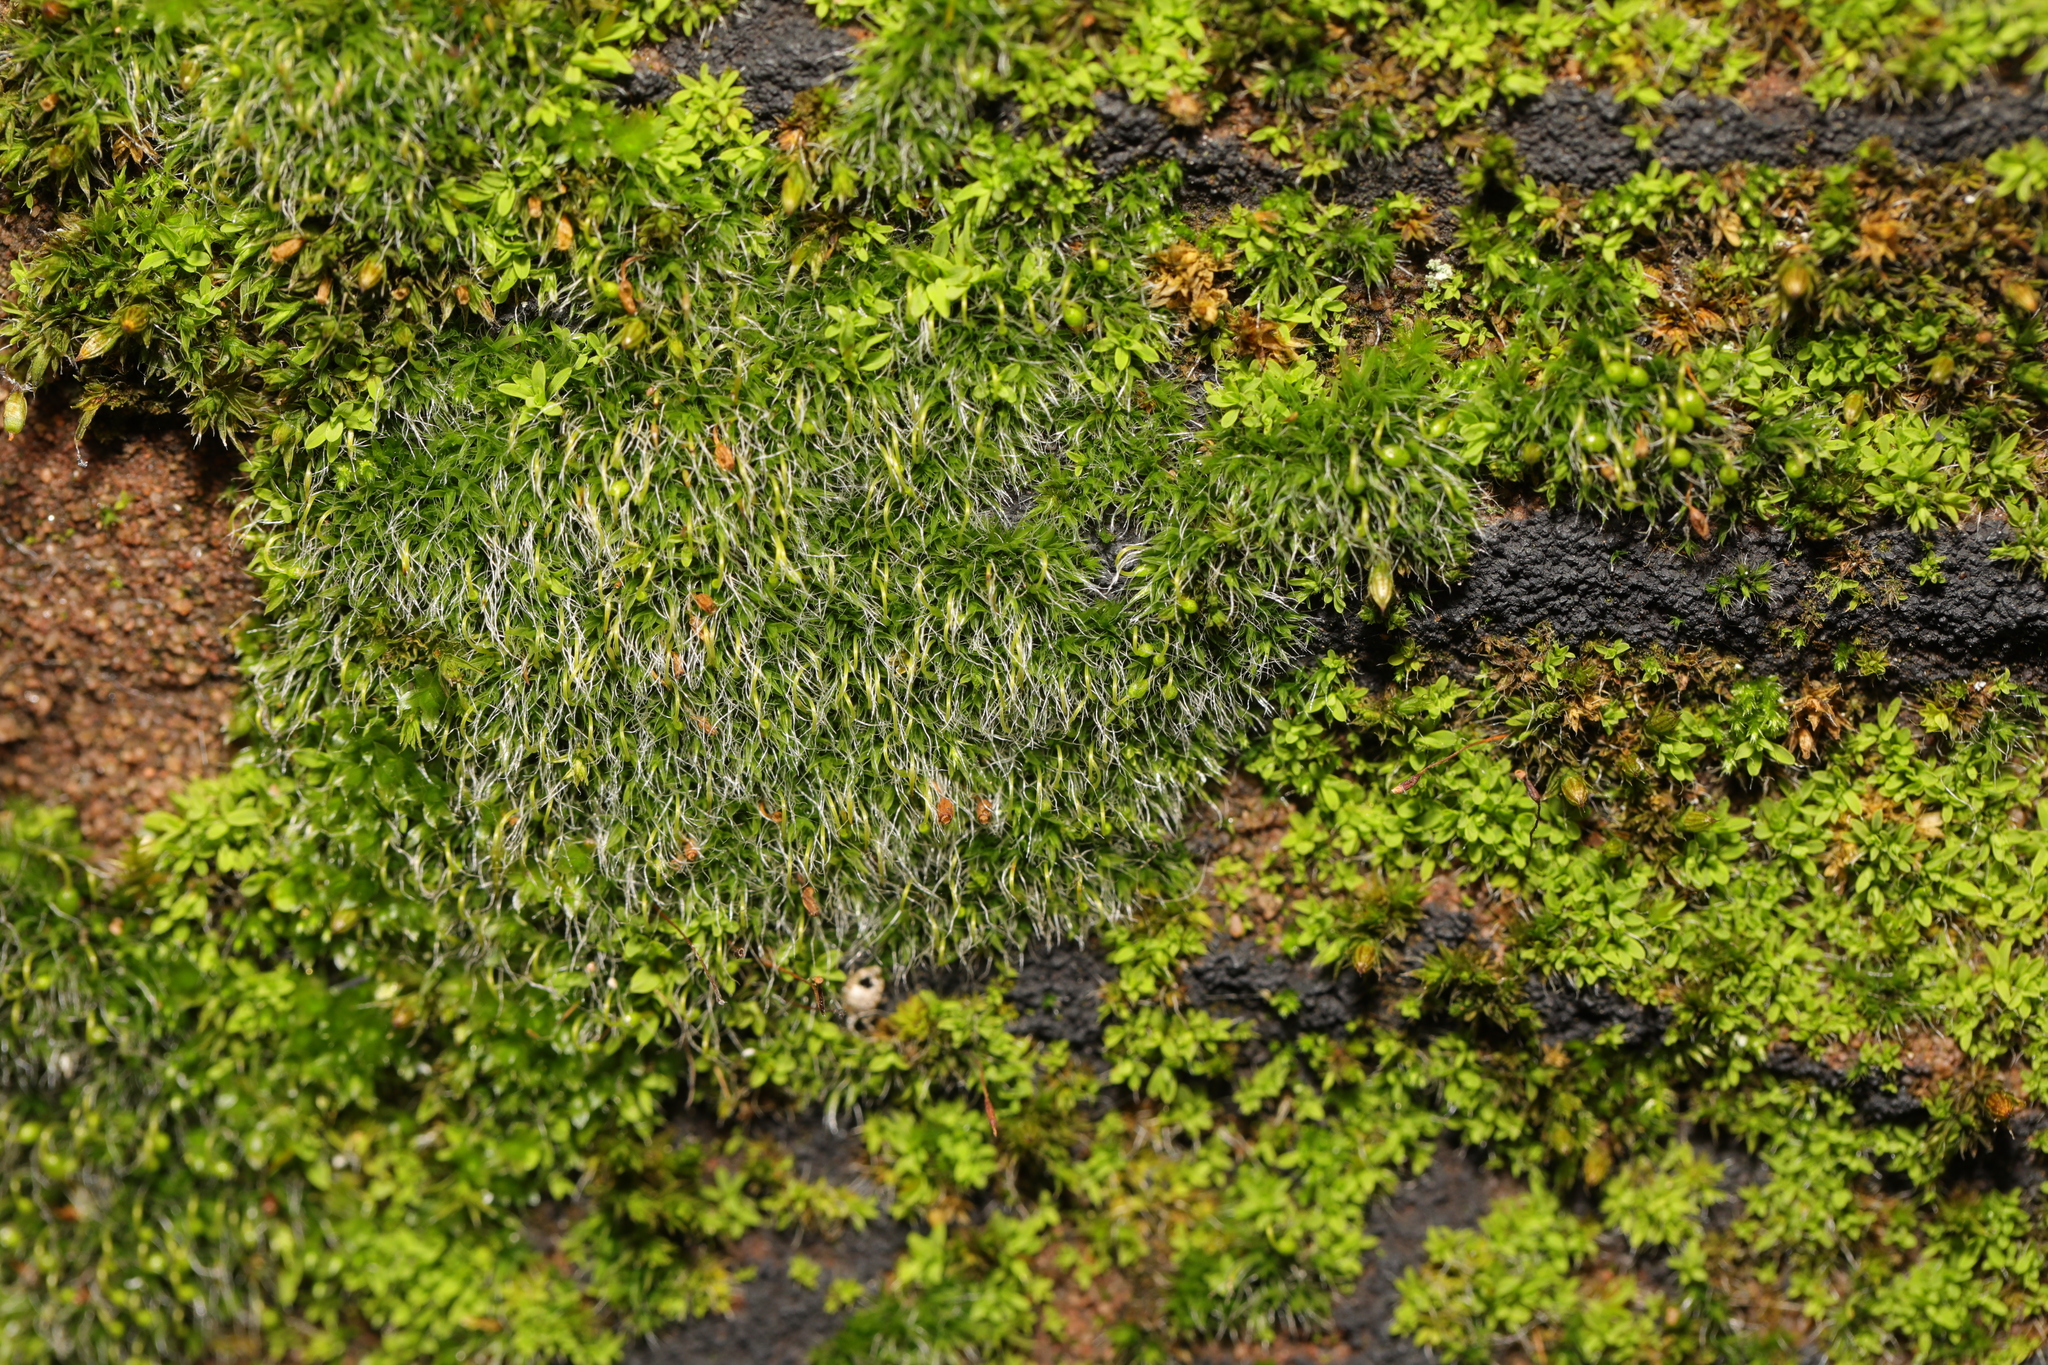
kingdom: Plantae
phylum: Bryophyta
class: Bryopsida
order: Grimmiales
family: Grimmiaceae
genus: Grimmia
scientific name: Grimmia pulvinata
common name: Grey-cushioned grimmia
